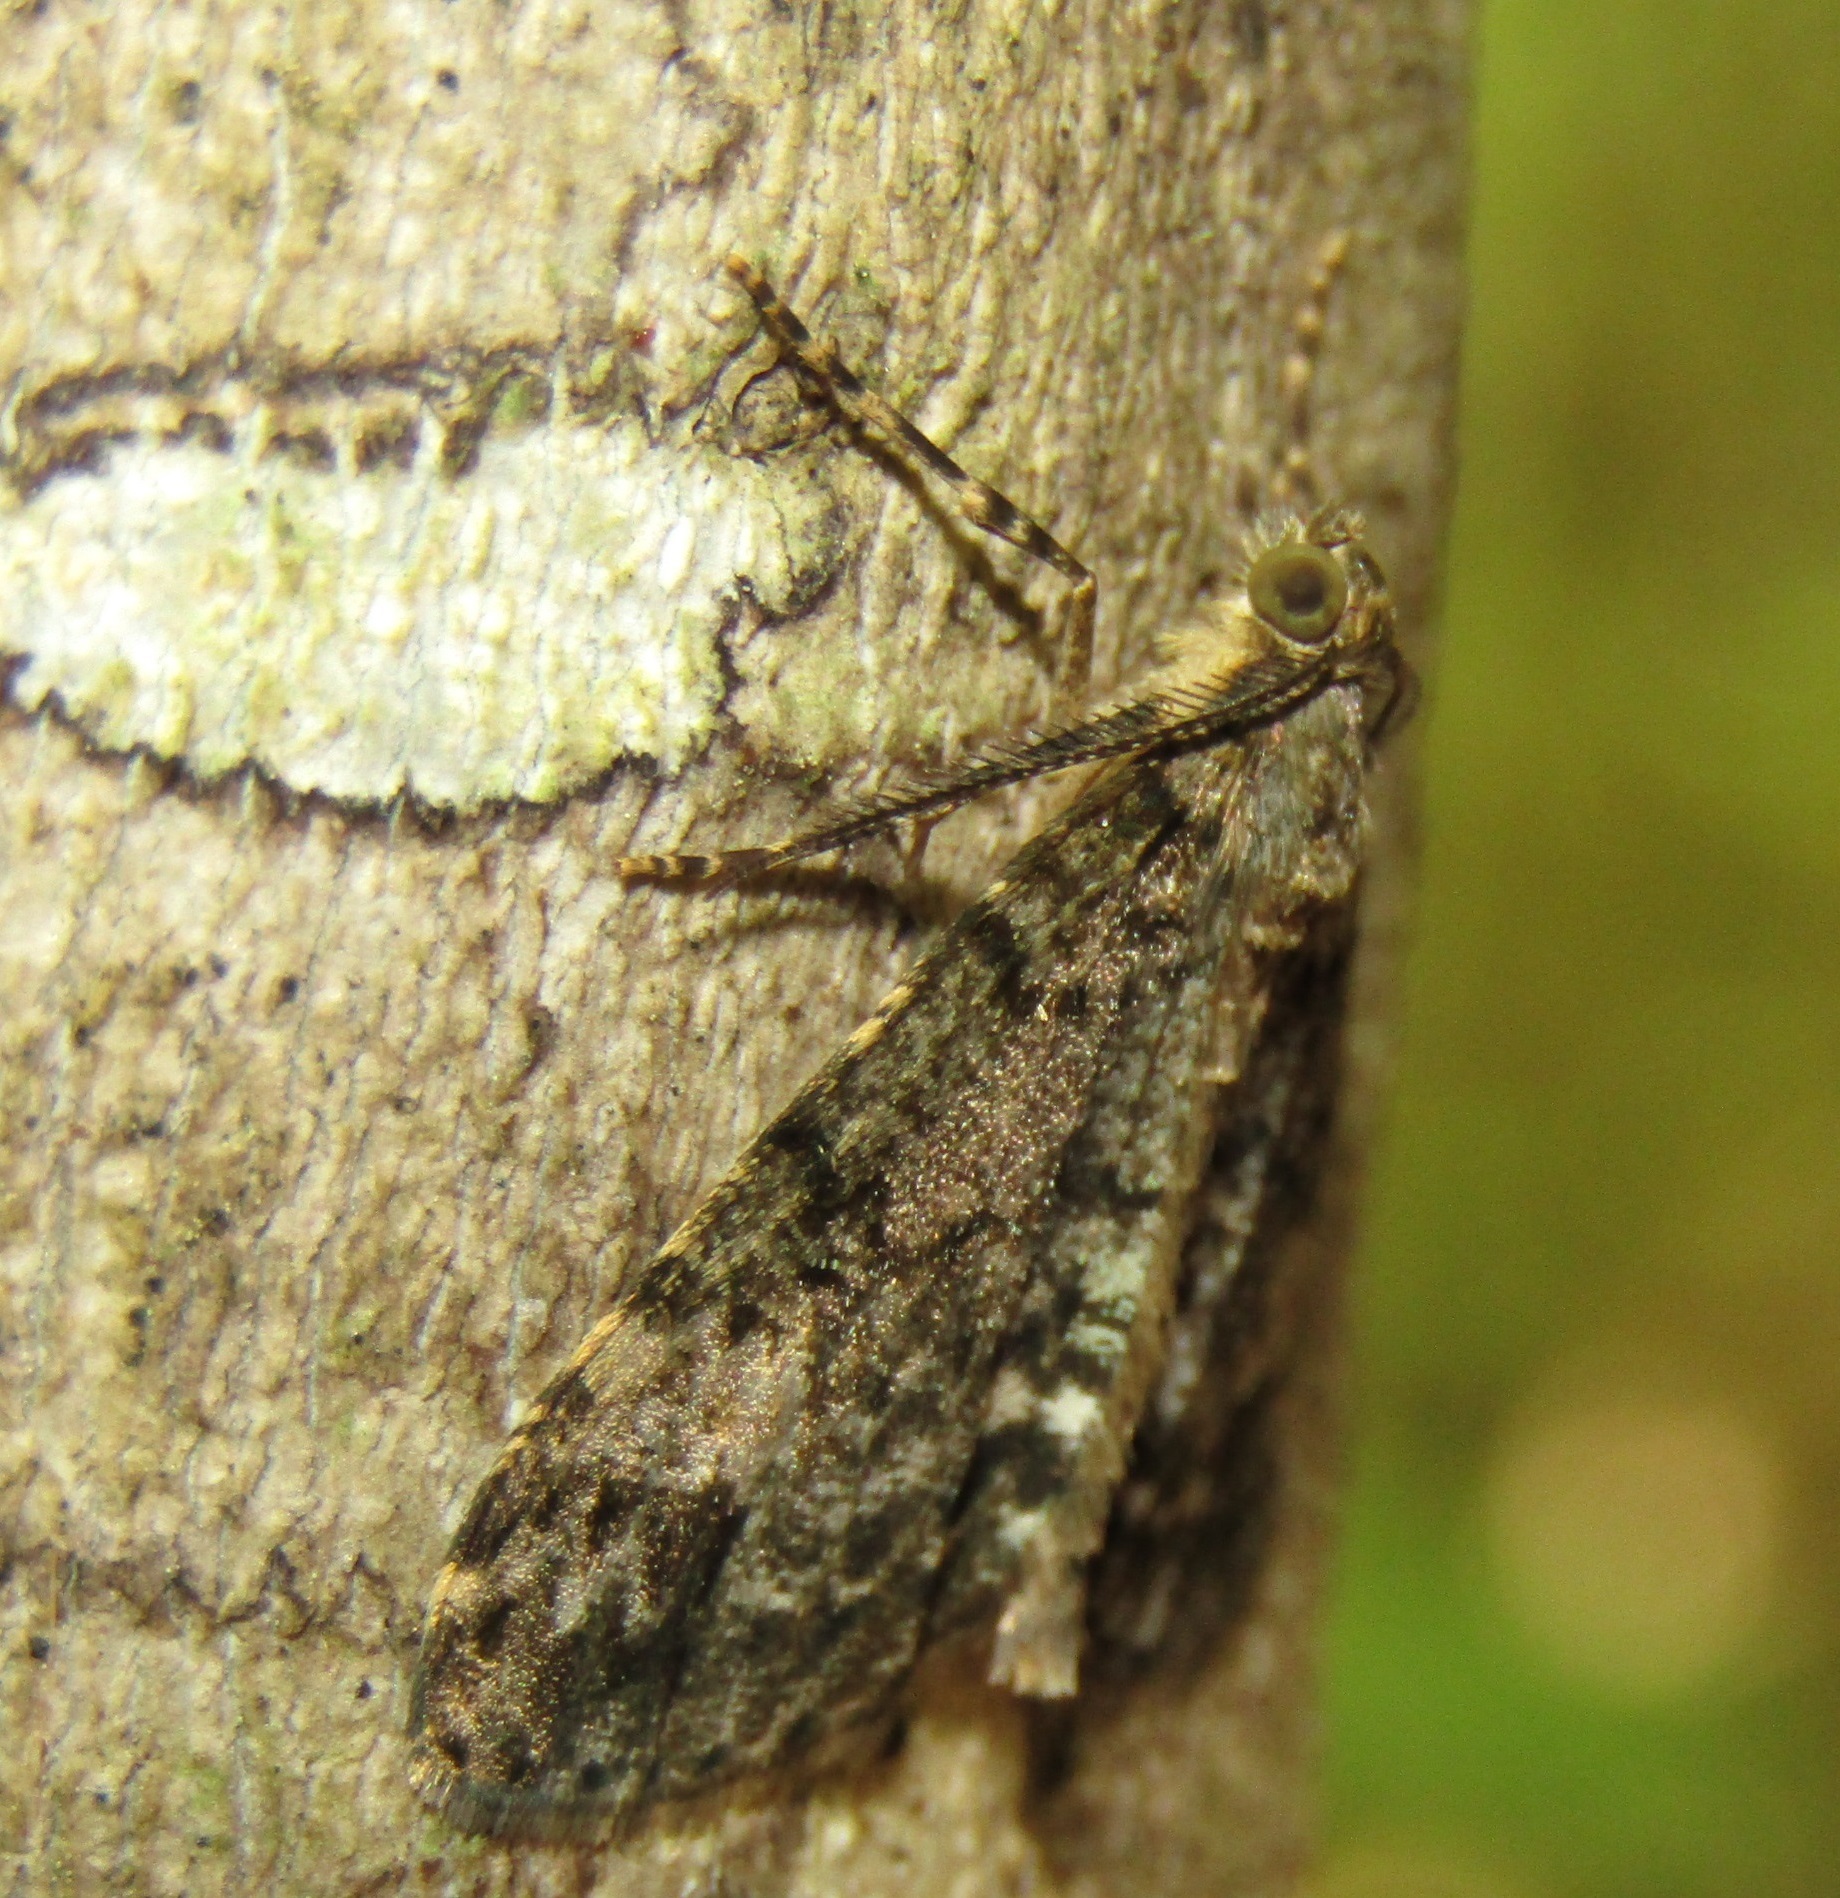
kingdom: Animalia
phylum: Arthropoda
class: Insecta
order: Lepidoptera
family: Geometridae
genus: Pseudocoremia
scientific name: Pseudocoremia indistincta
